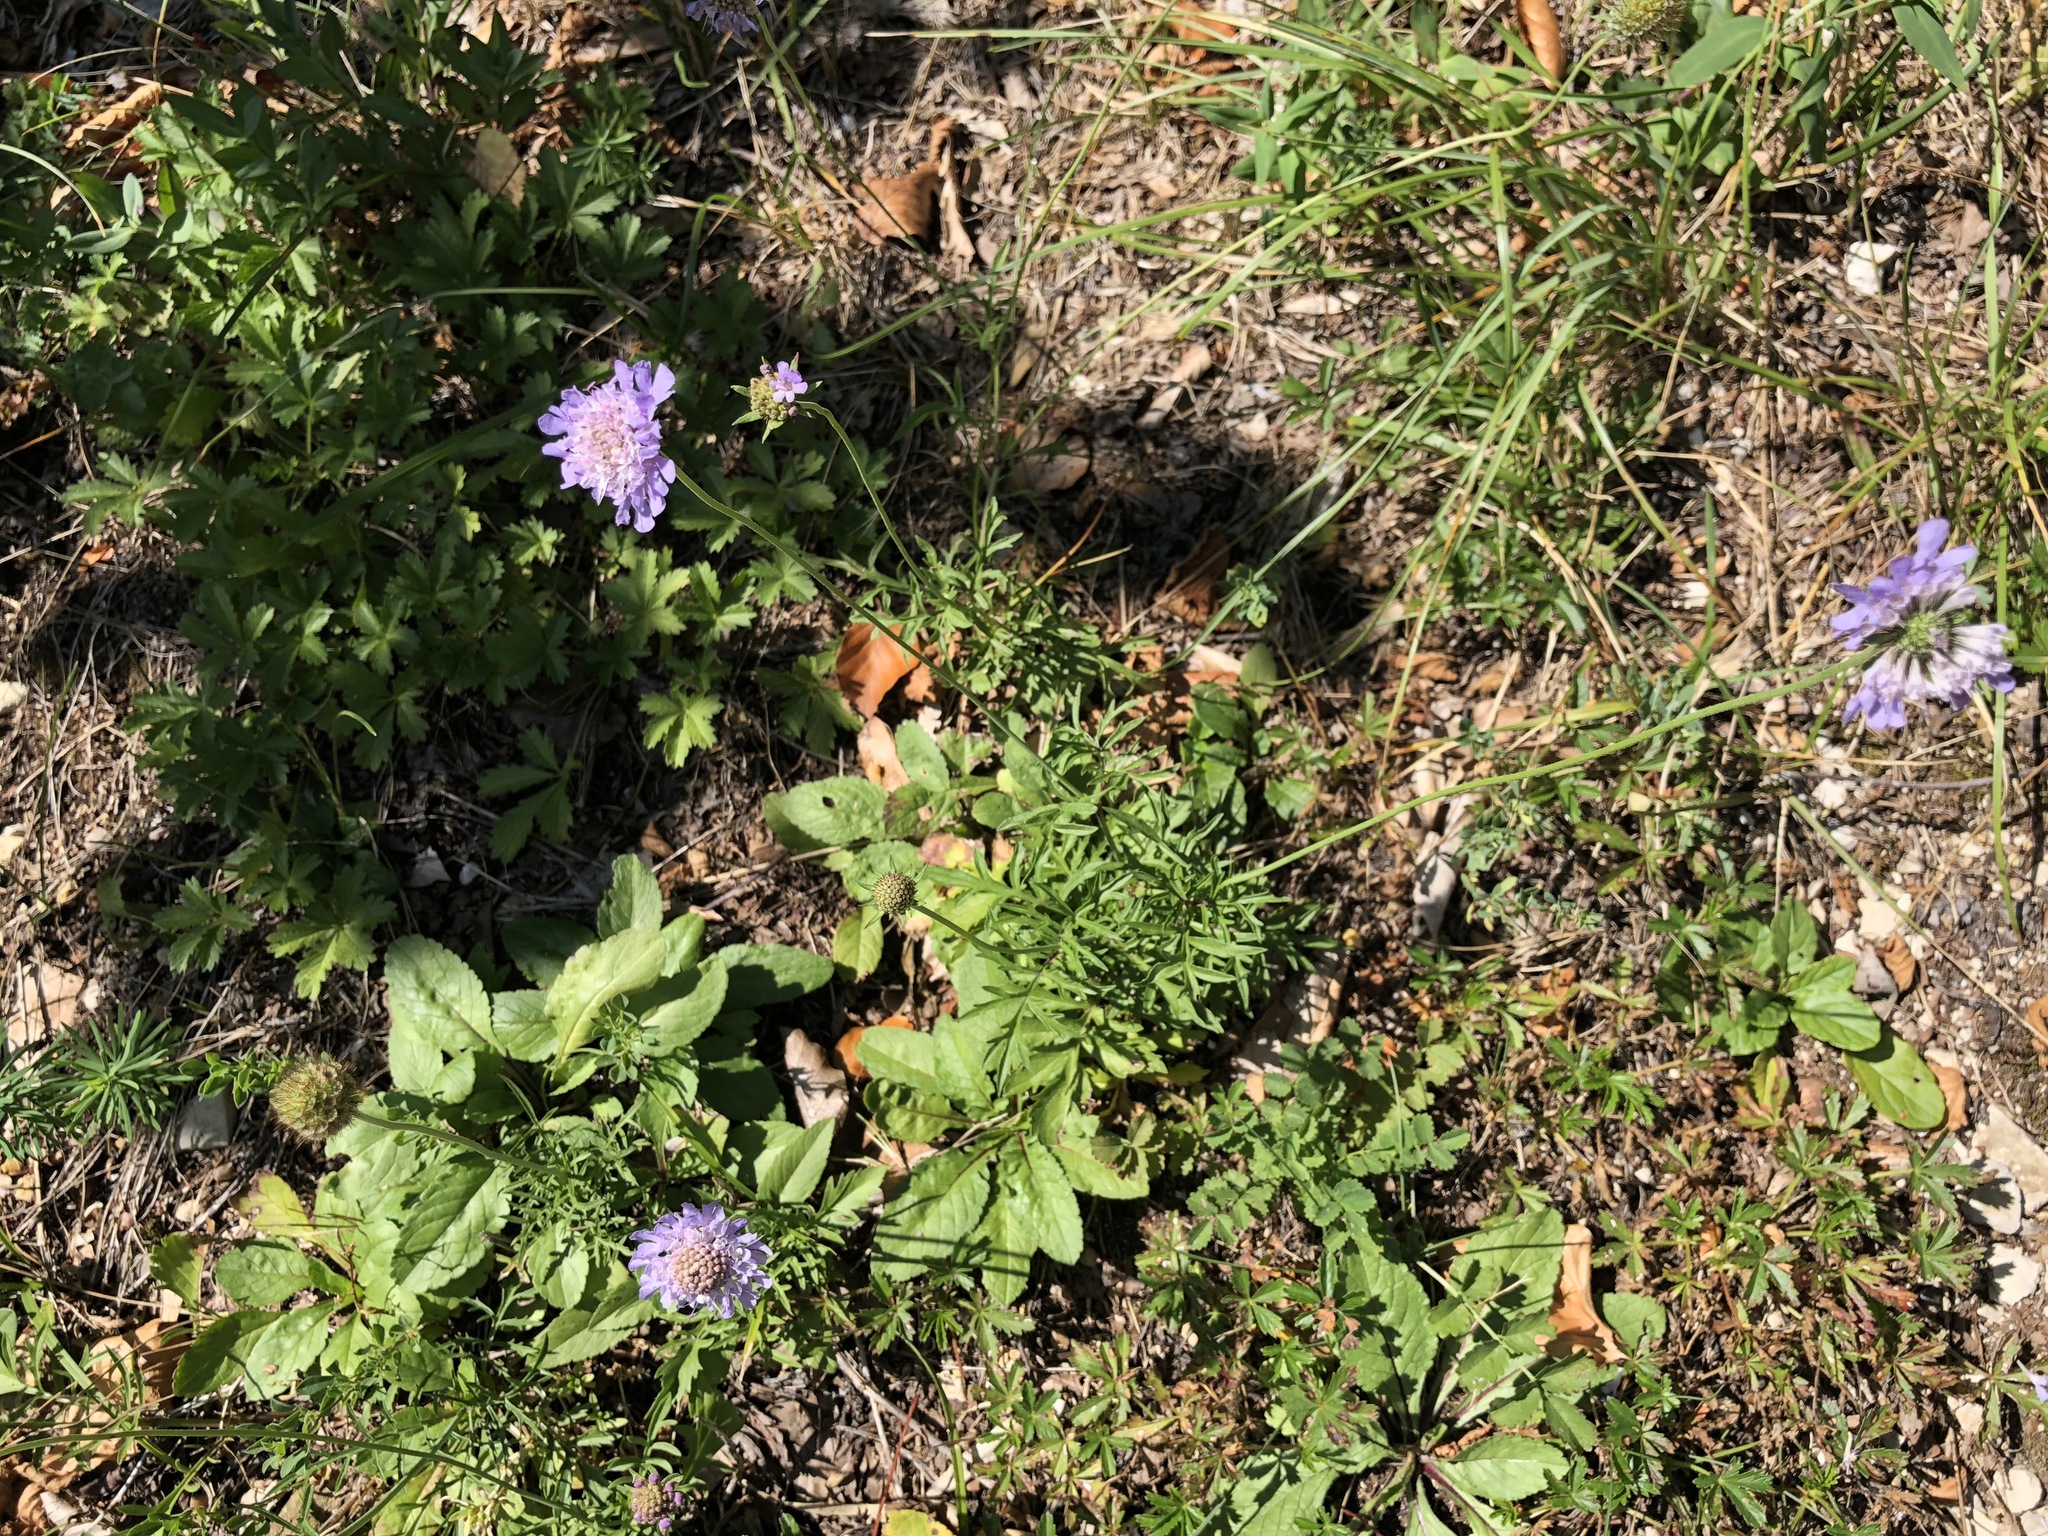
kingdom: Plantae
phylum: Tracheophyta
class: Magnoliopsida
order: Dipsacales
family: Caprifoliaceae
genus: Scabiosa
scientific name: Scabiosa columbaria
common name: Small scabious
